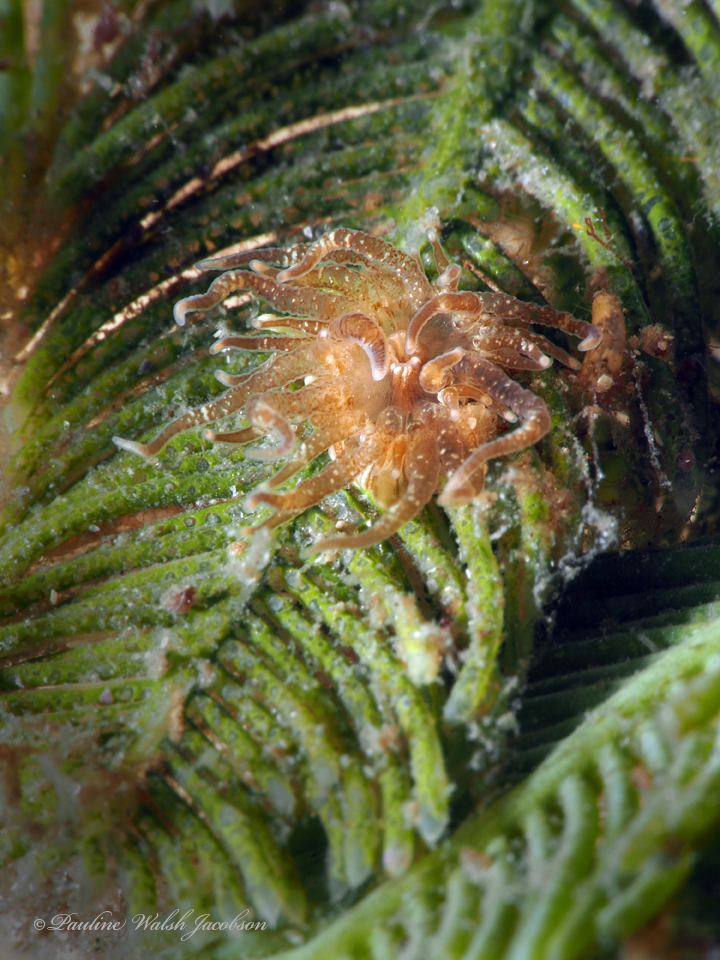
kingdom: Animalia
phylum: Cnidaria
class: Anthozoa
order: Actiniaria
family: Boloceroididae
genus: Bunodeopsis
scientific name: Bunodeopsis globulifera
